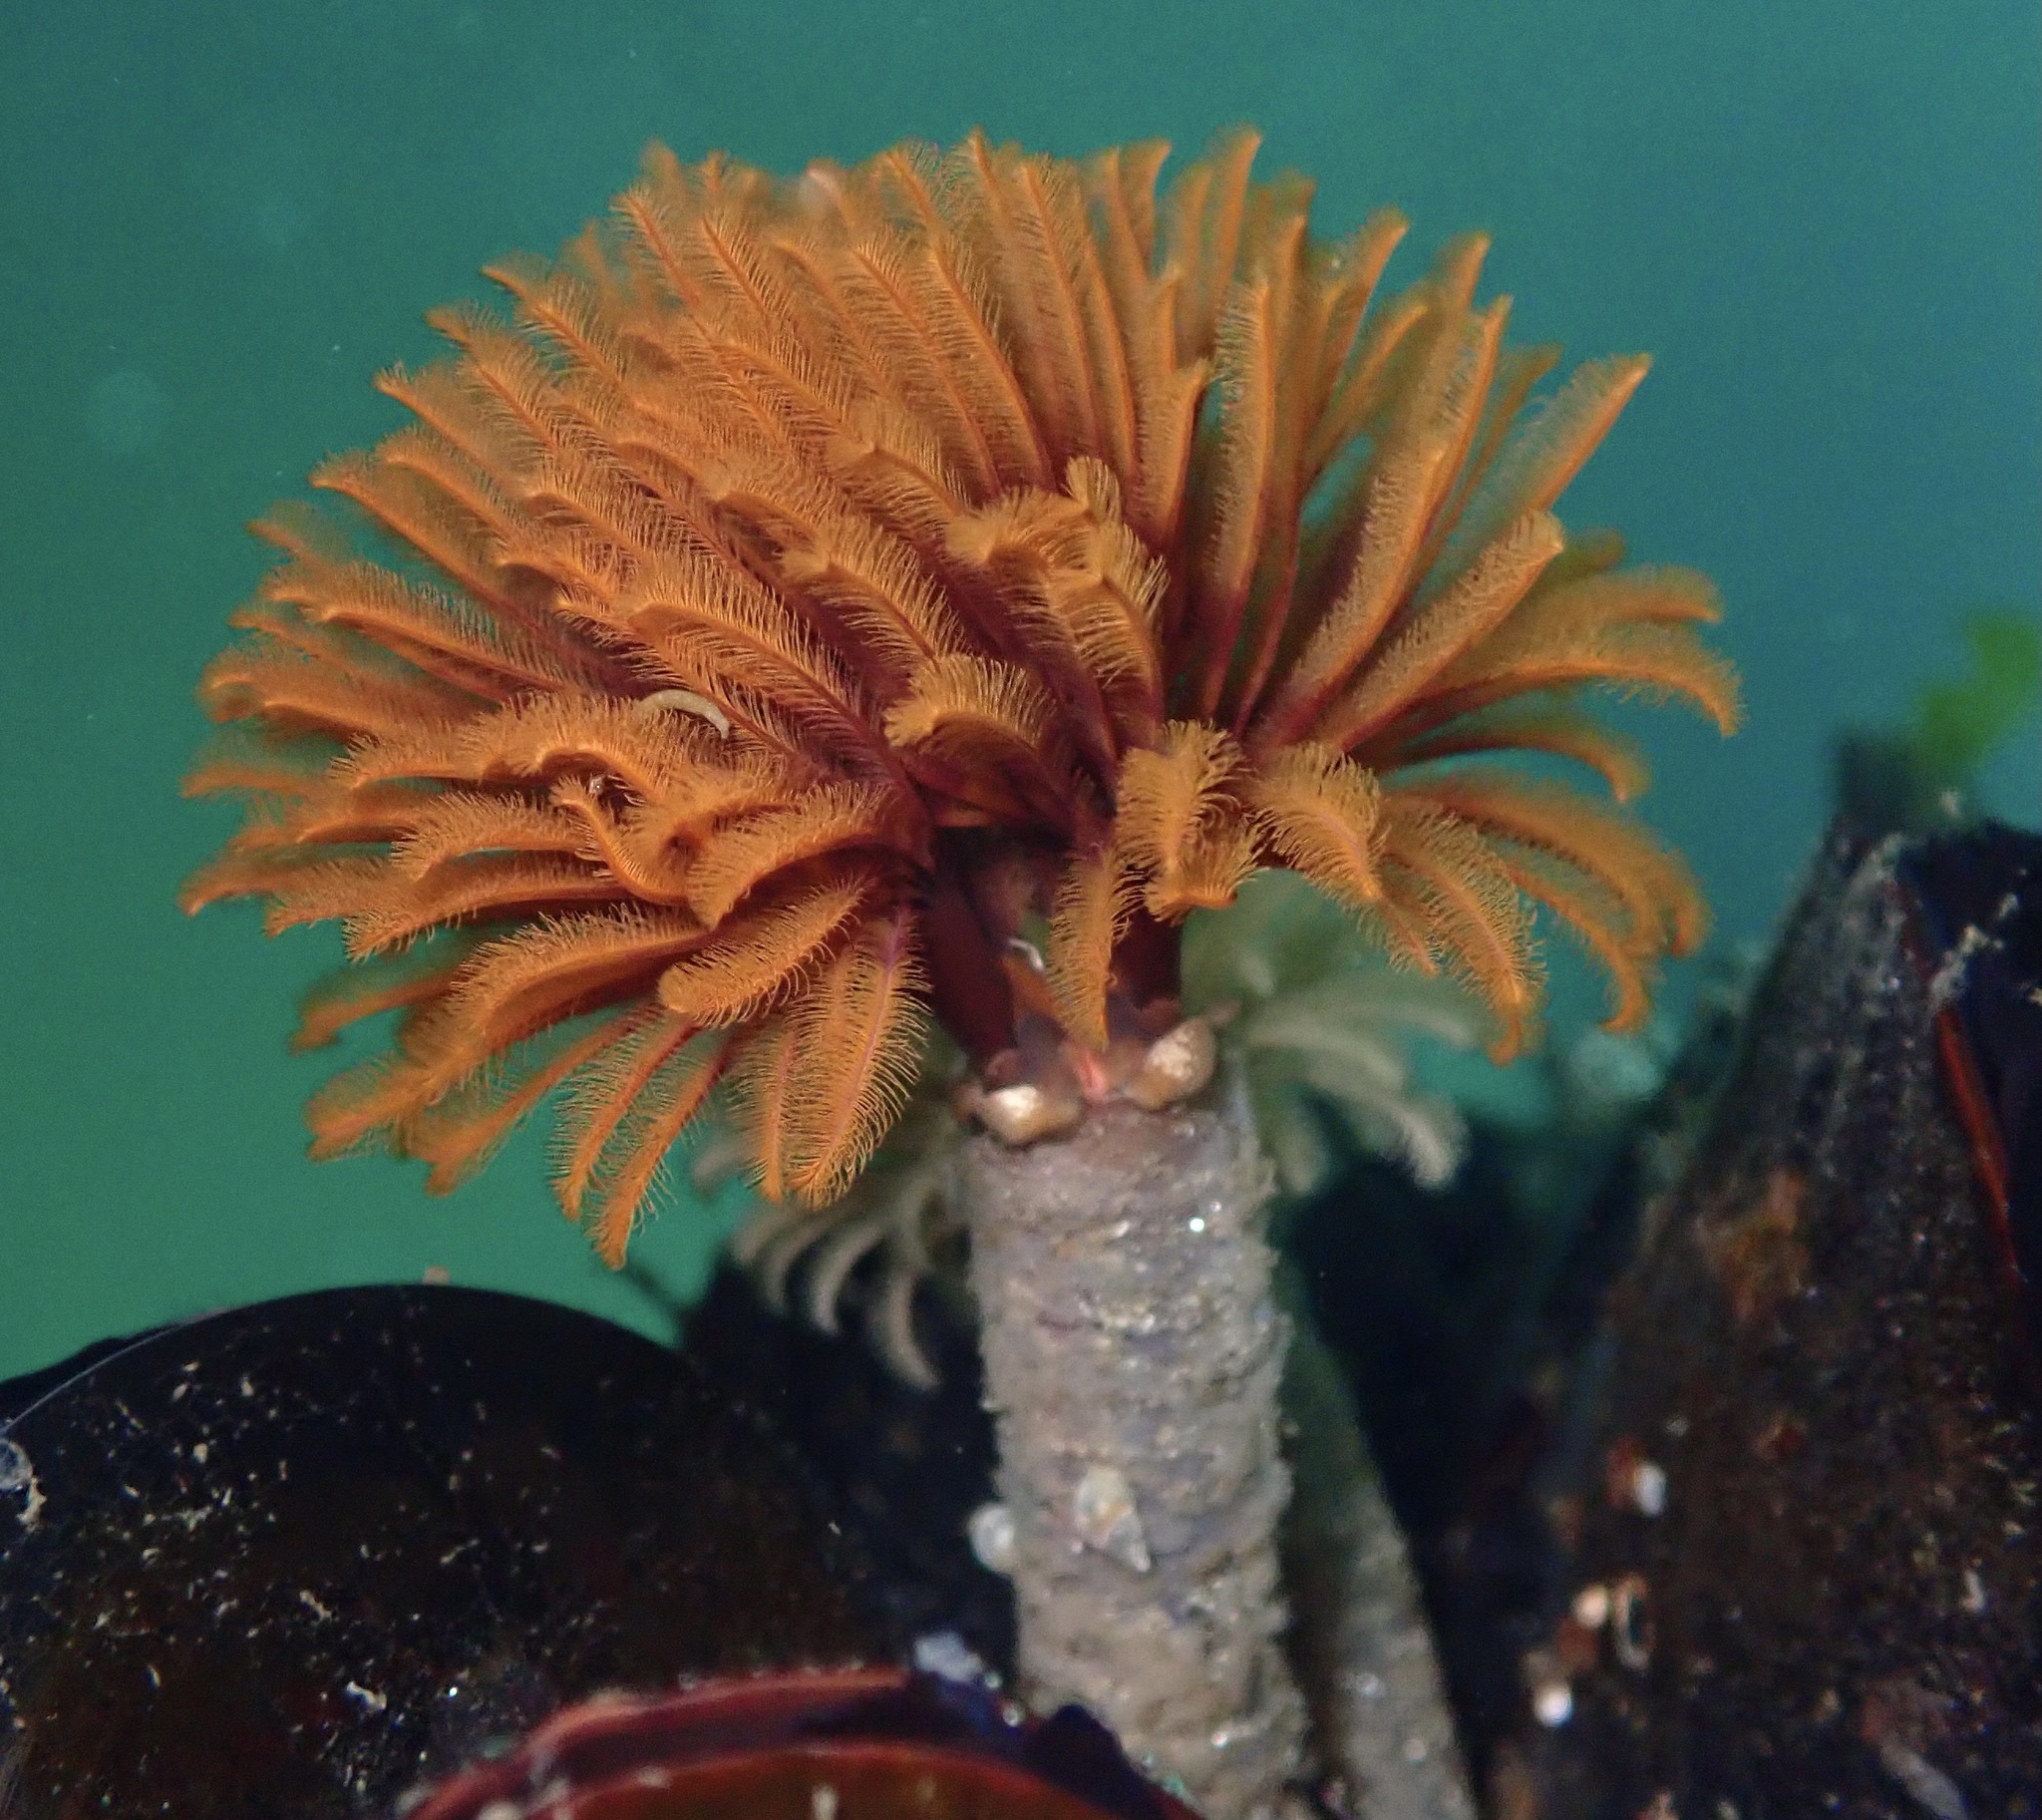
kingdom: Animalia
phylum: Annelida
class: Polychaeta
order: Sabellida
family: Sabellidae
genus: Eudistylia
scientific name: Eudistylia polymorpha
